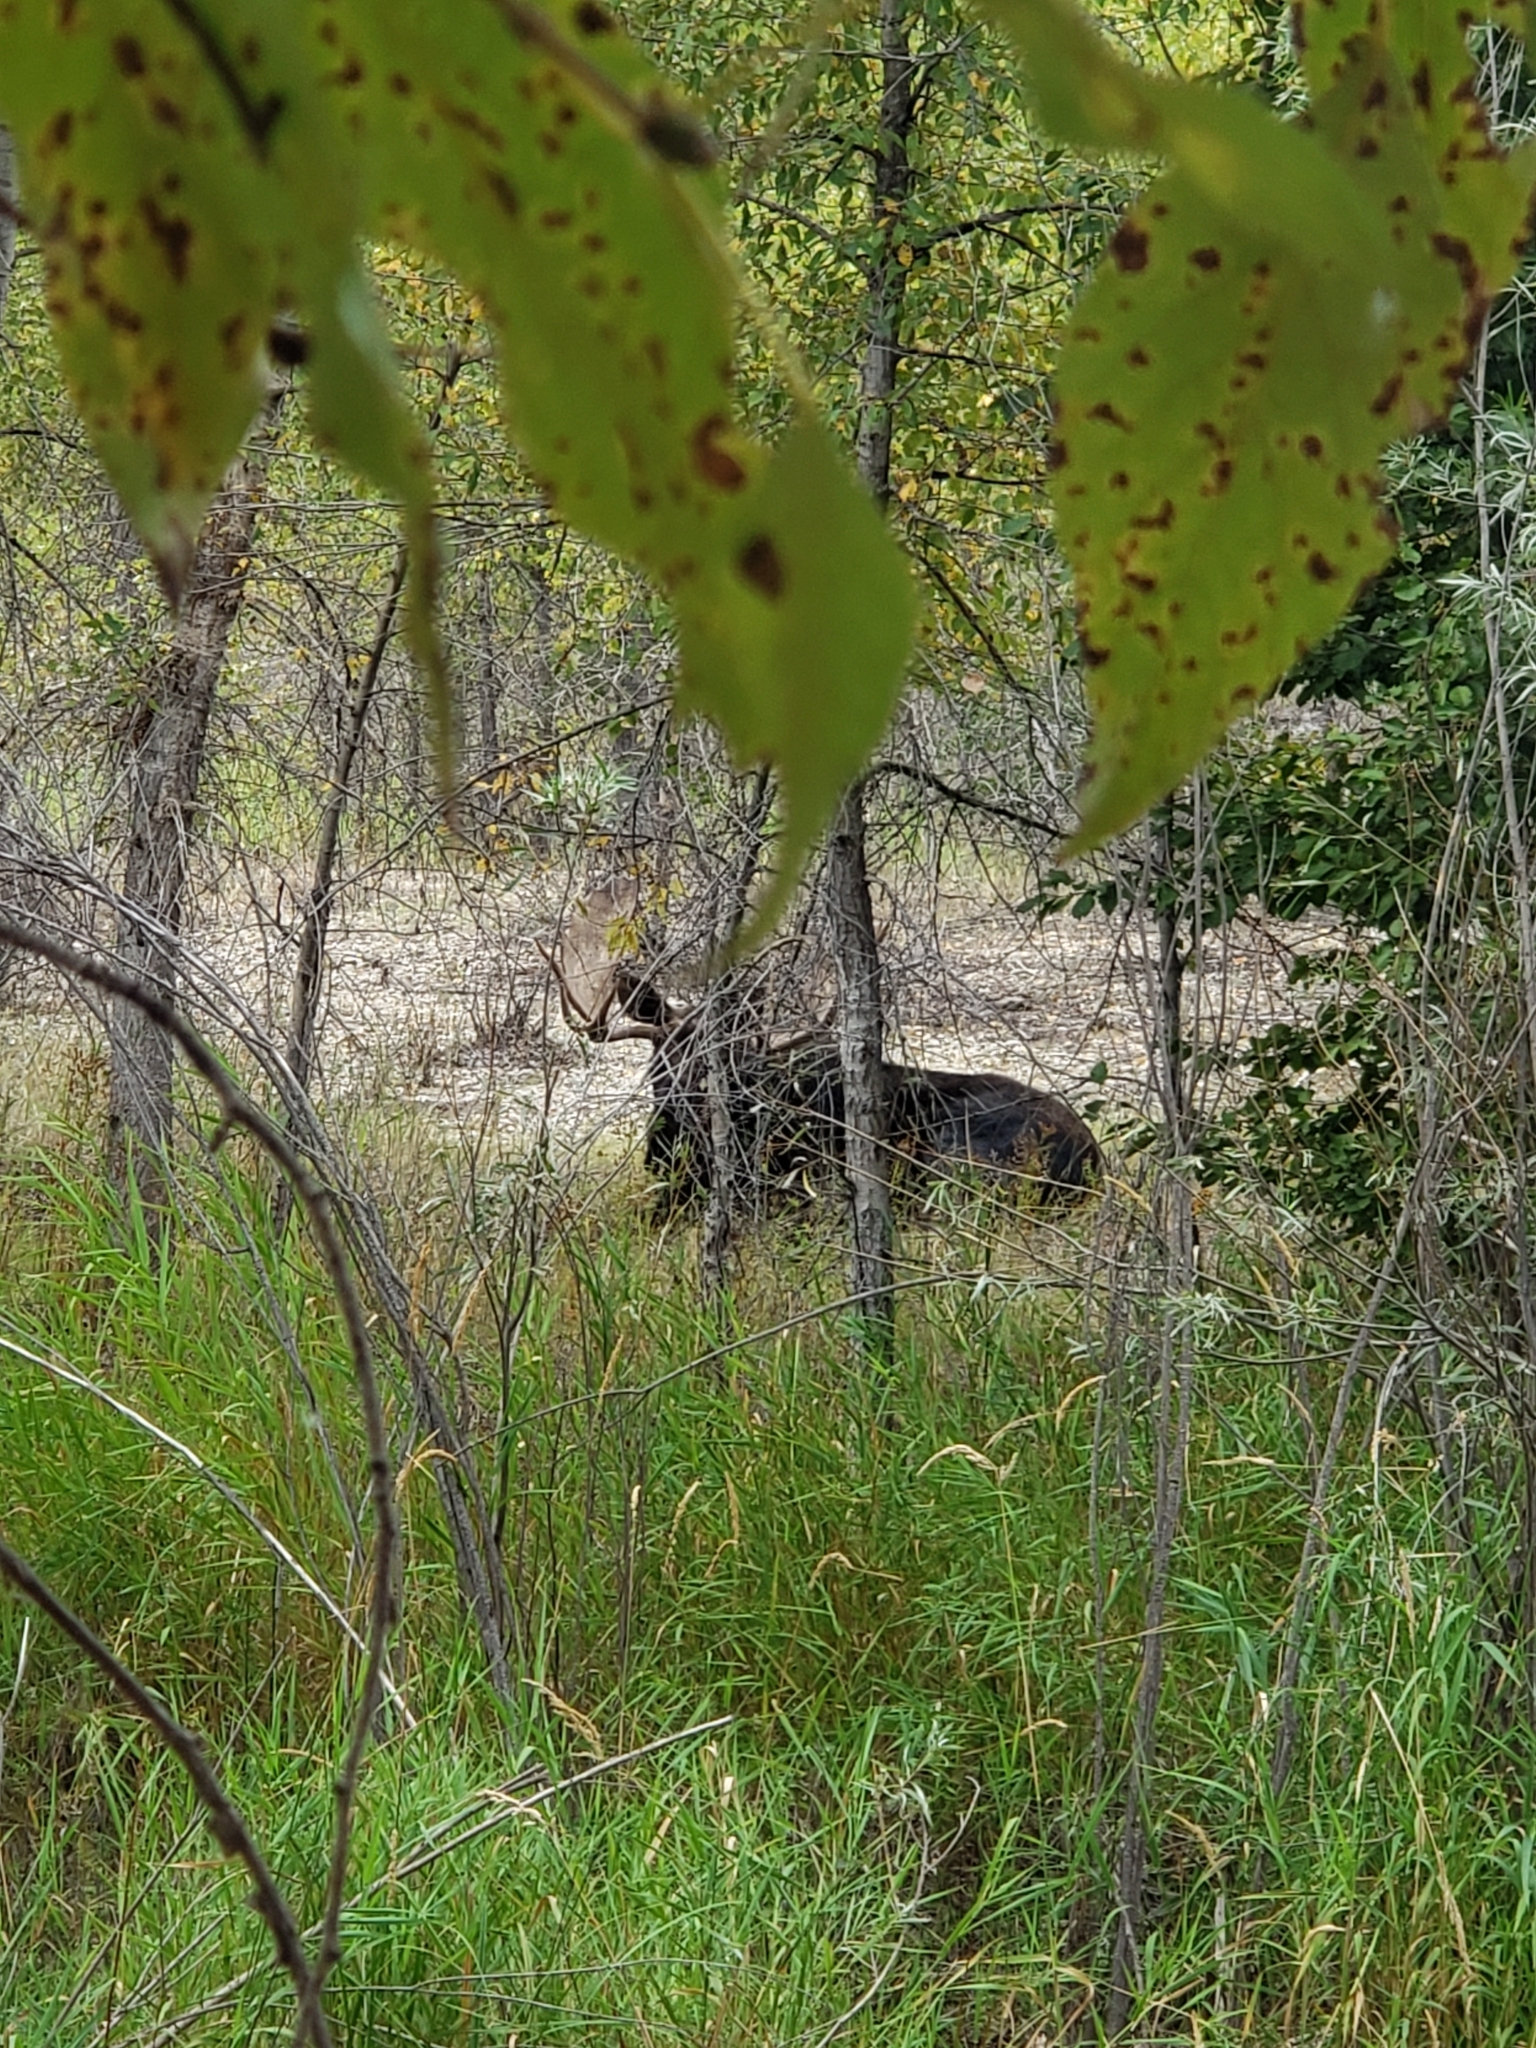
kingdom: Animalia
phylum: Chordata
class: Mammalia
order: Artiodactyla
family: Cervidae
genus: Alces
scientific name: Alces alces
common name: Moose
